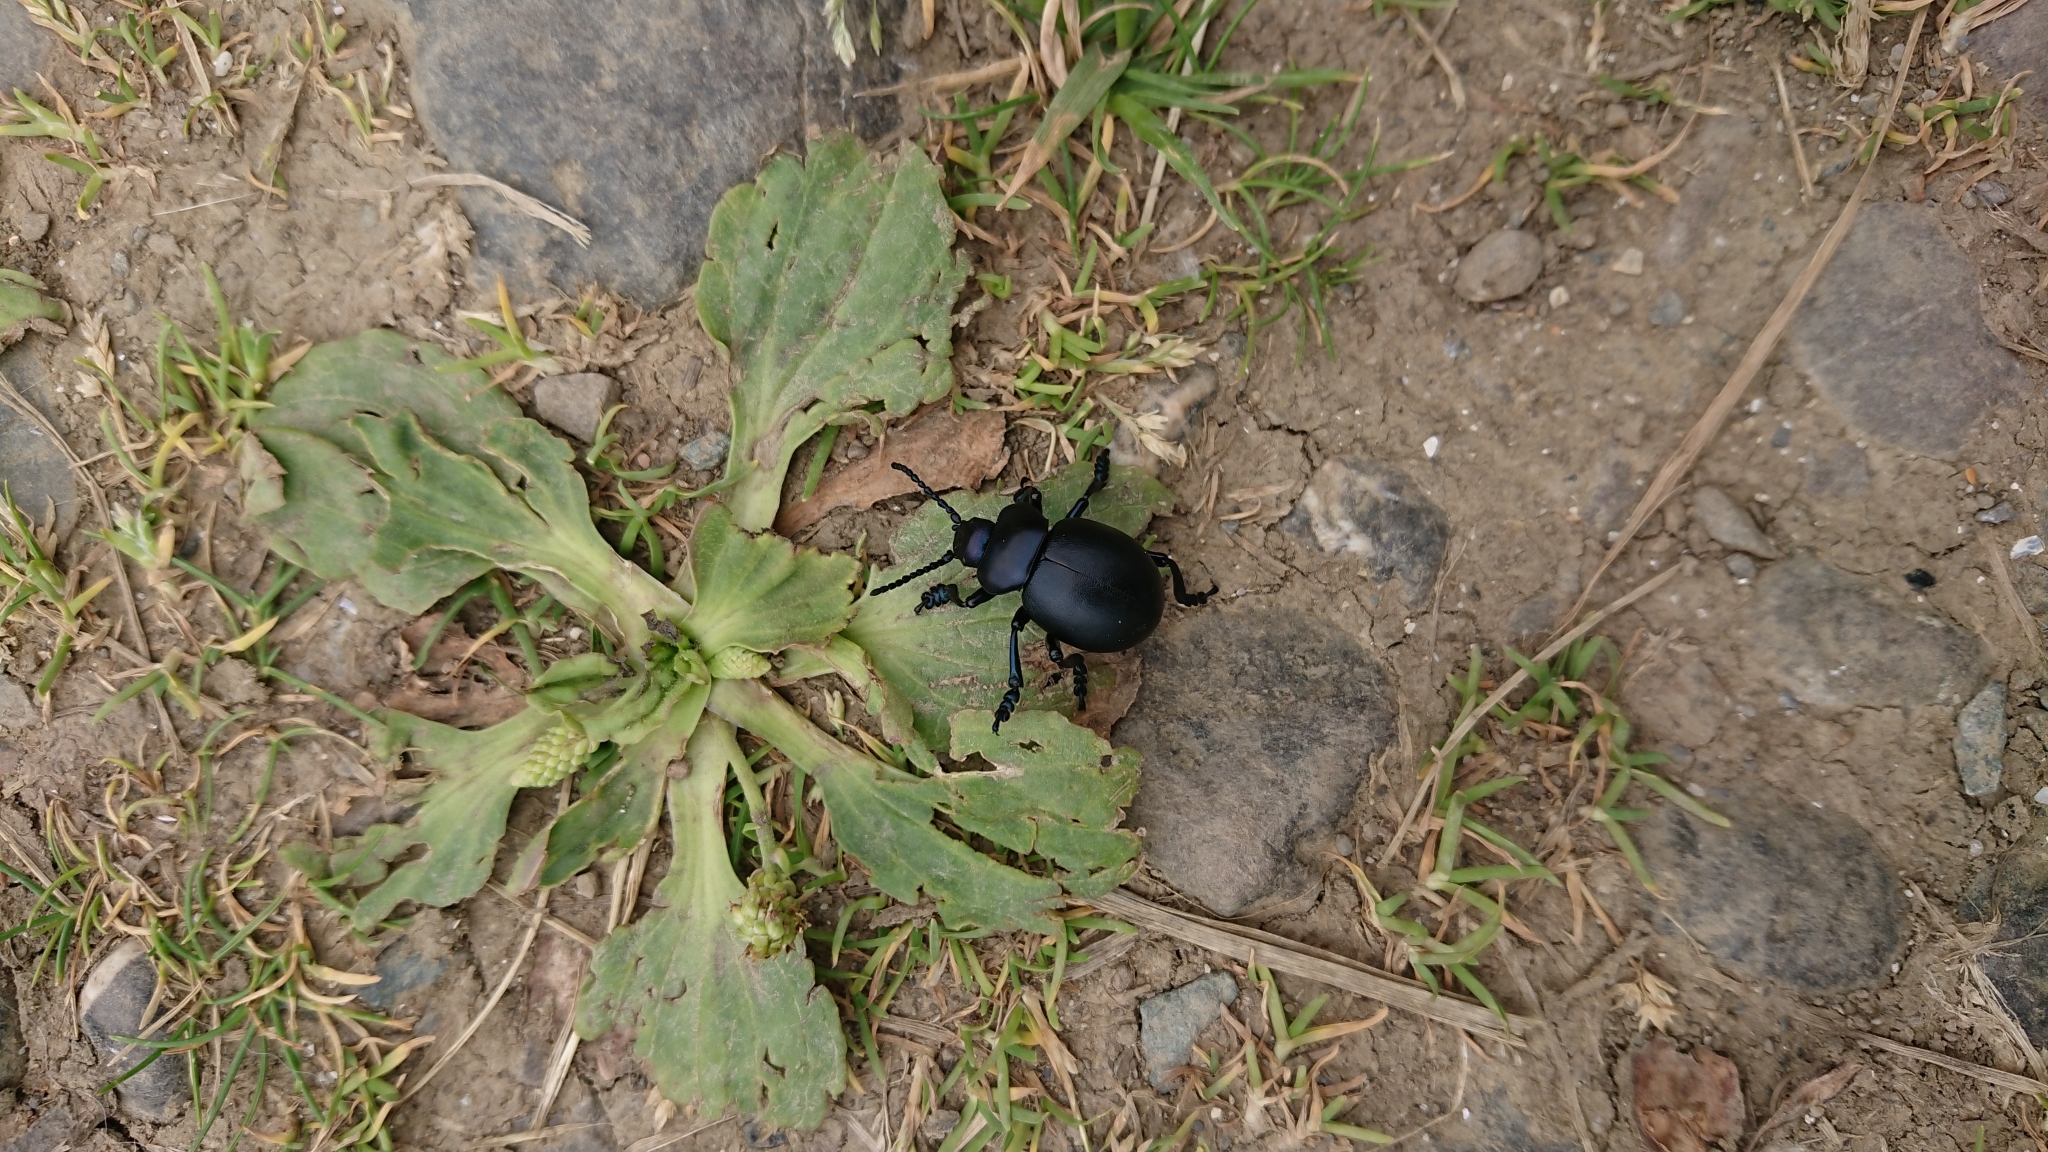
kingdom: Animalia
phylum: Arthropoda
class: Insecta
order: Coleoptera
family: Chrysomelidae
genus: Timarcha
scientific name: Timarcha tenebricosa
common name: Bloody-nosed beetle
